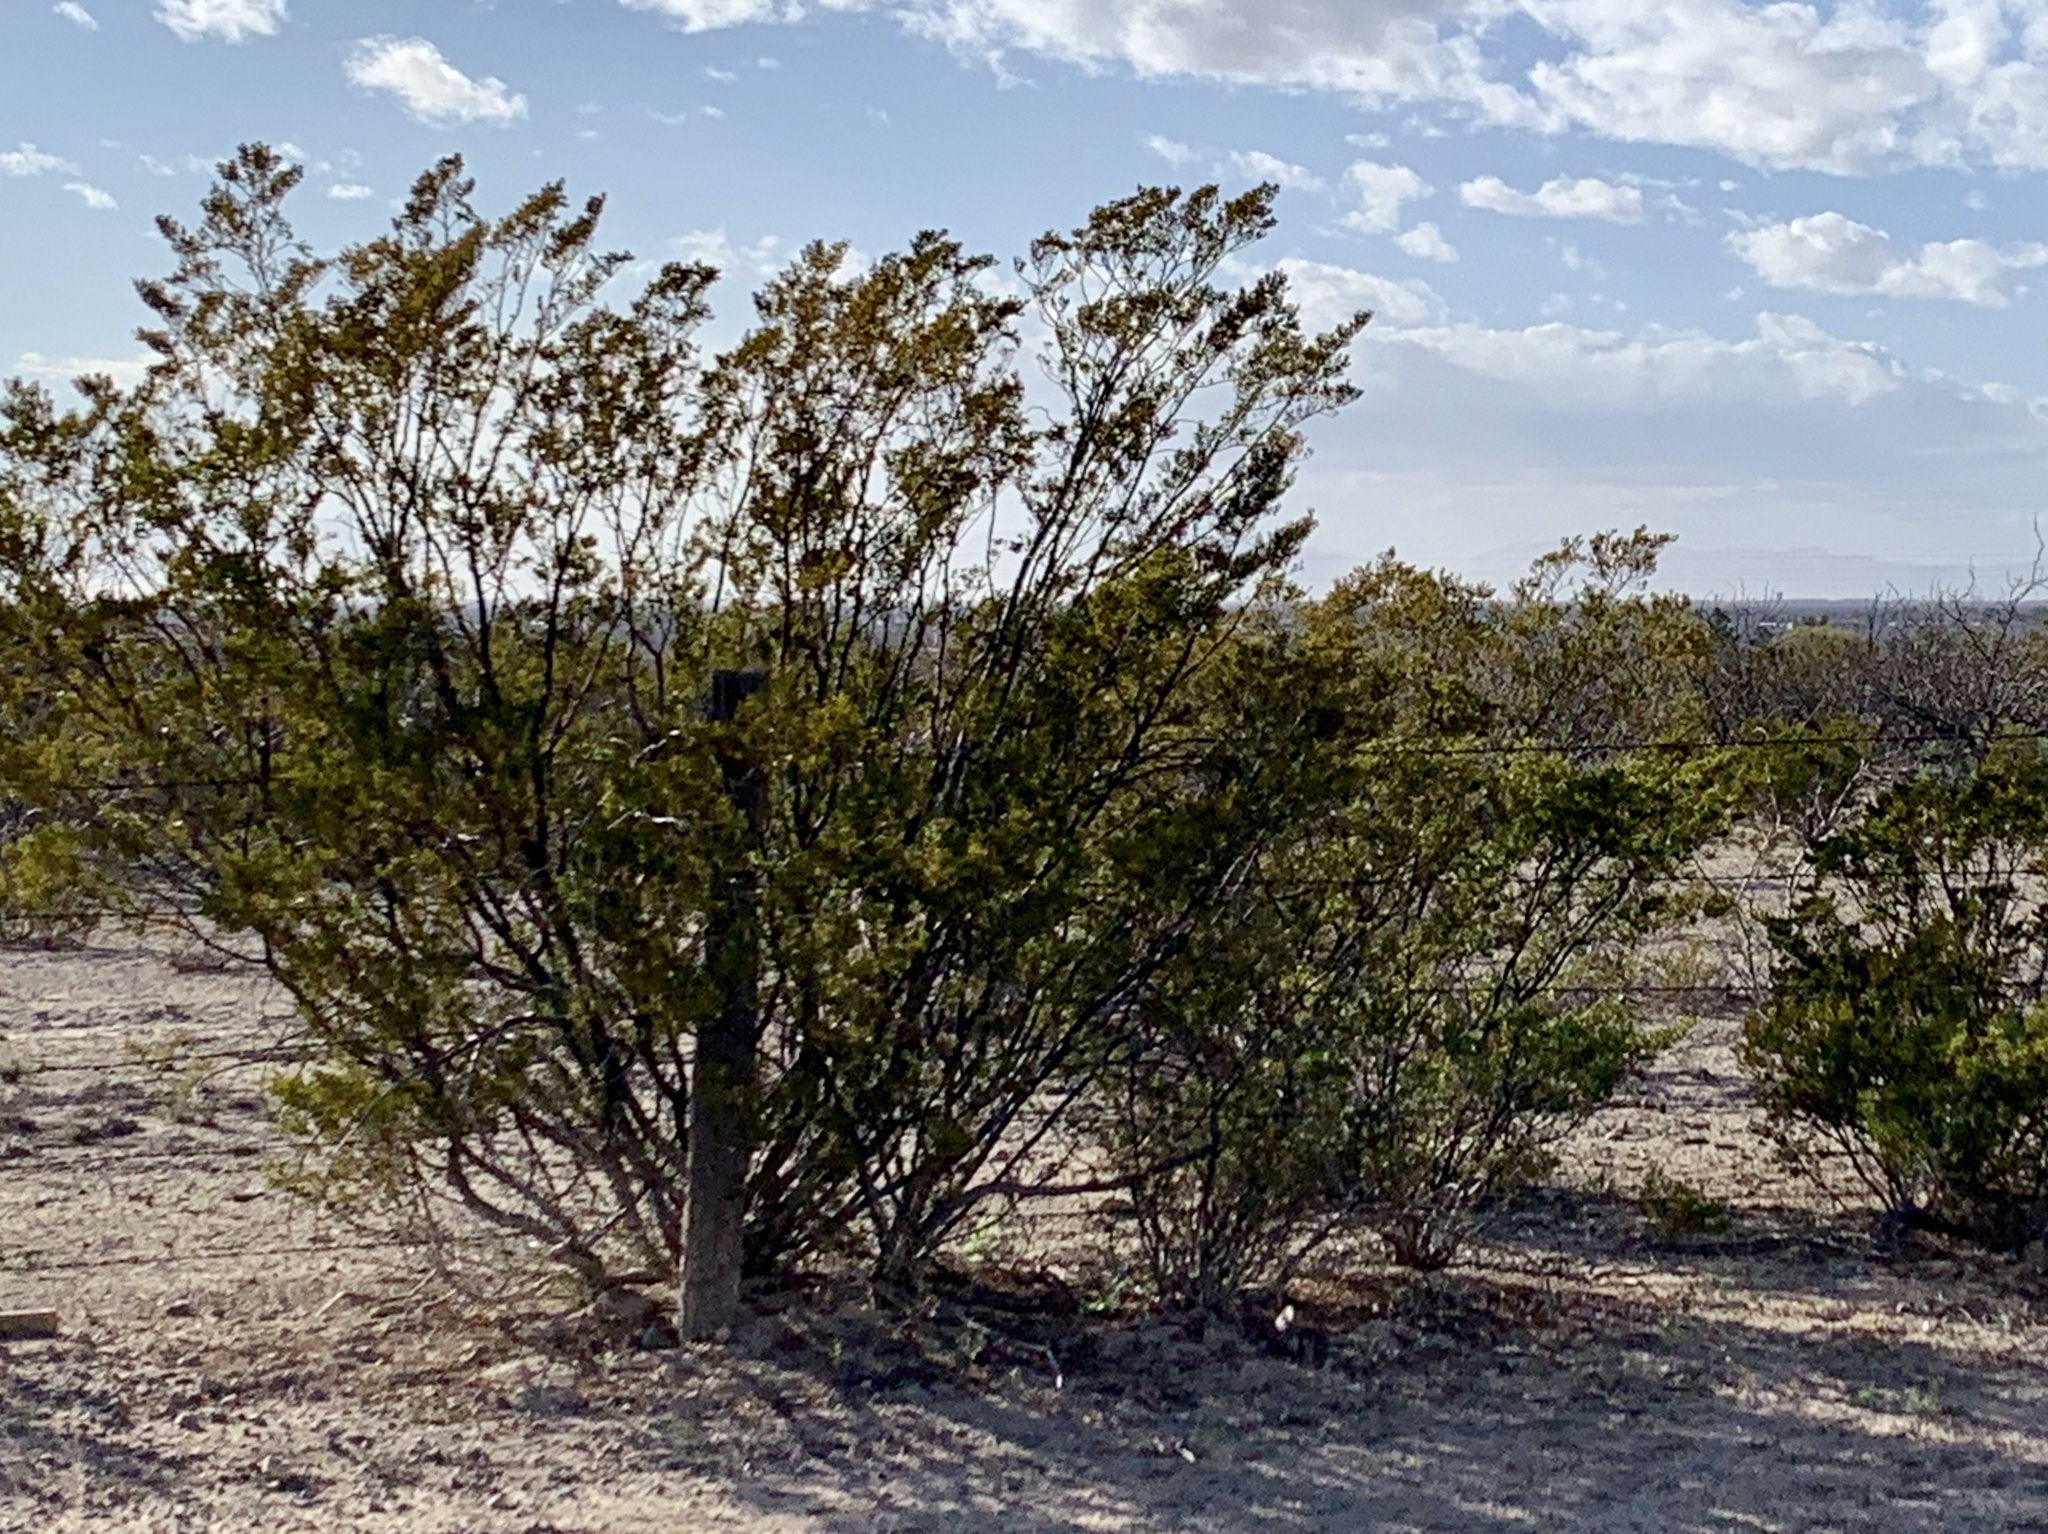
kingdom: Plantae
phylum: Tracheophyta
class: Magnoliopsida
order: Zygophyllales
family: Zygophyllaceae
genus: Larrea
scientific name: Larrea tridentata
